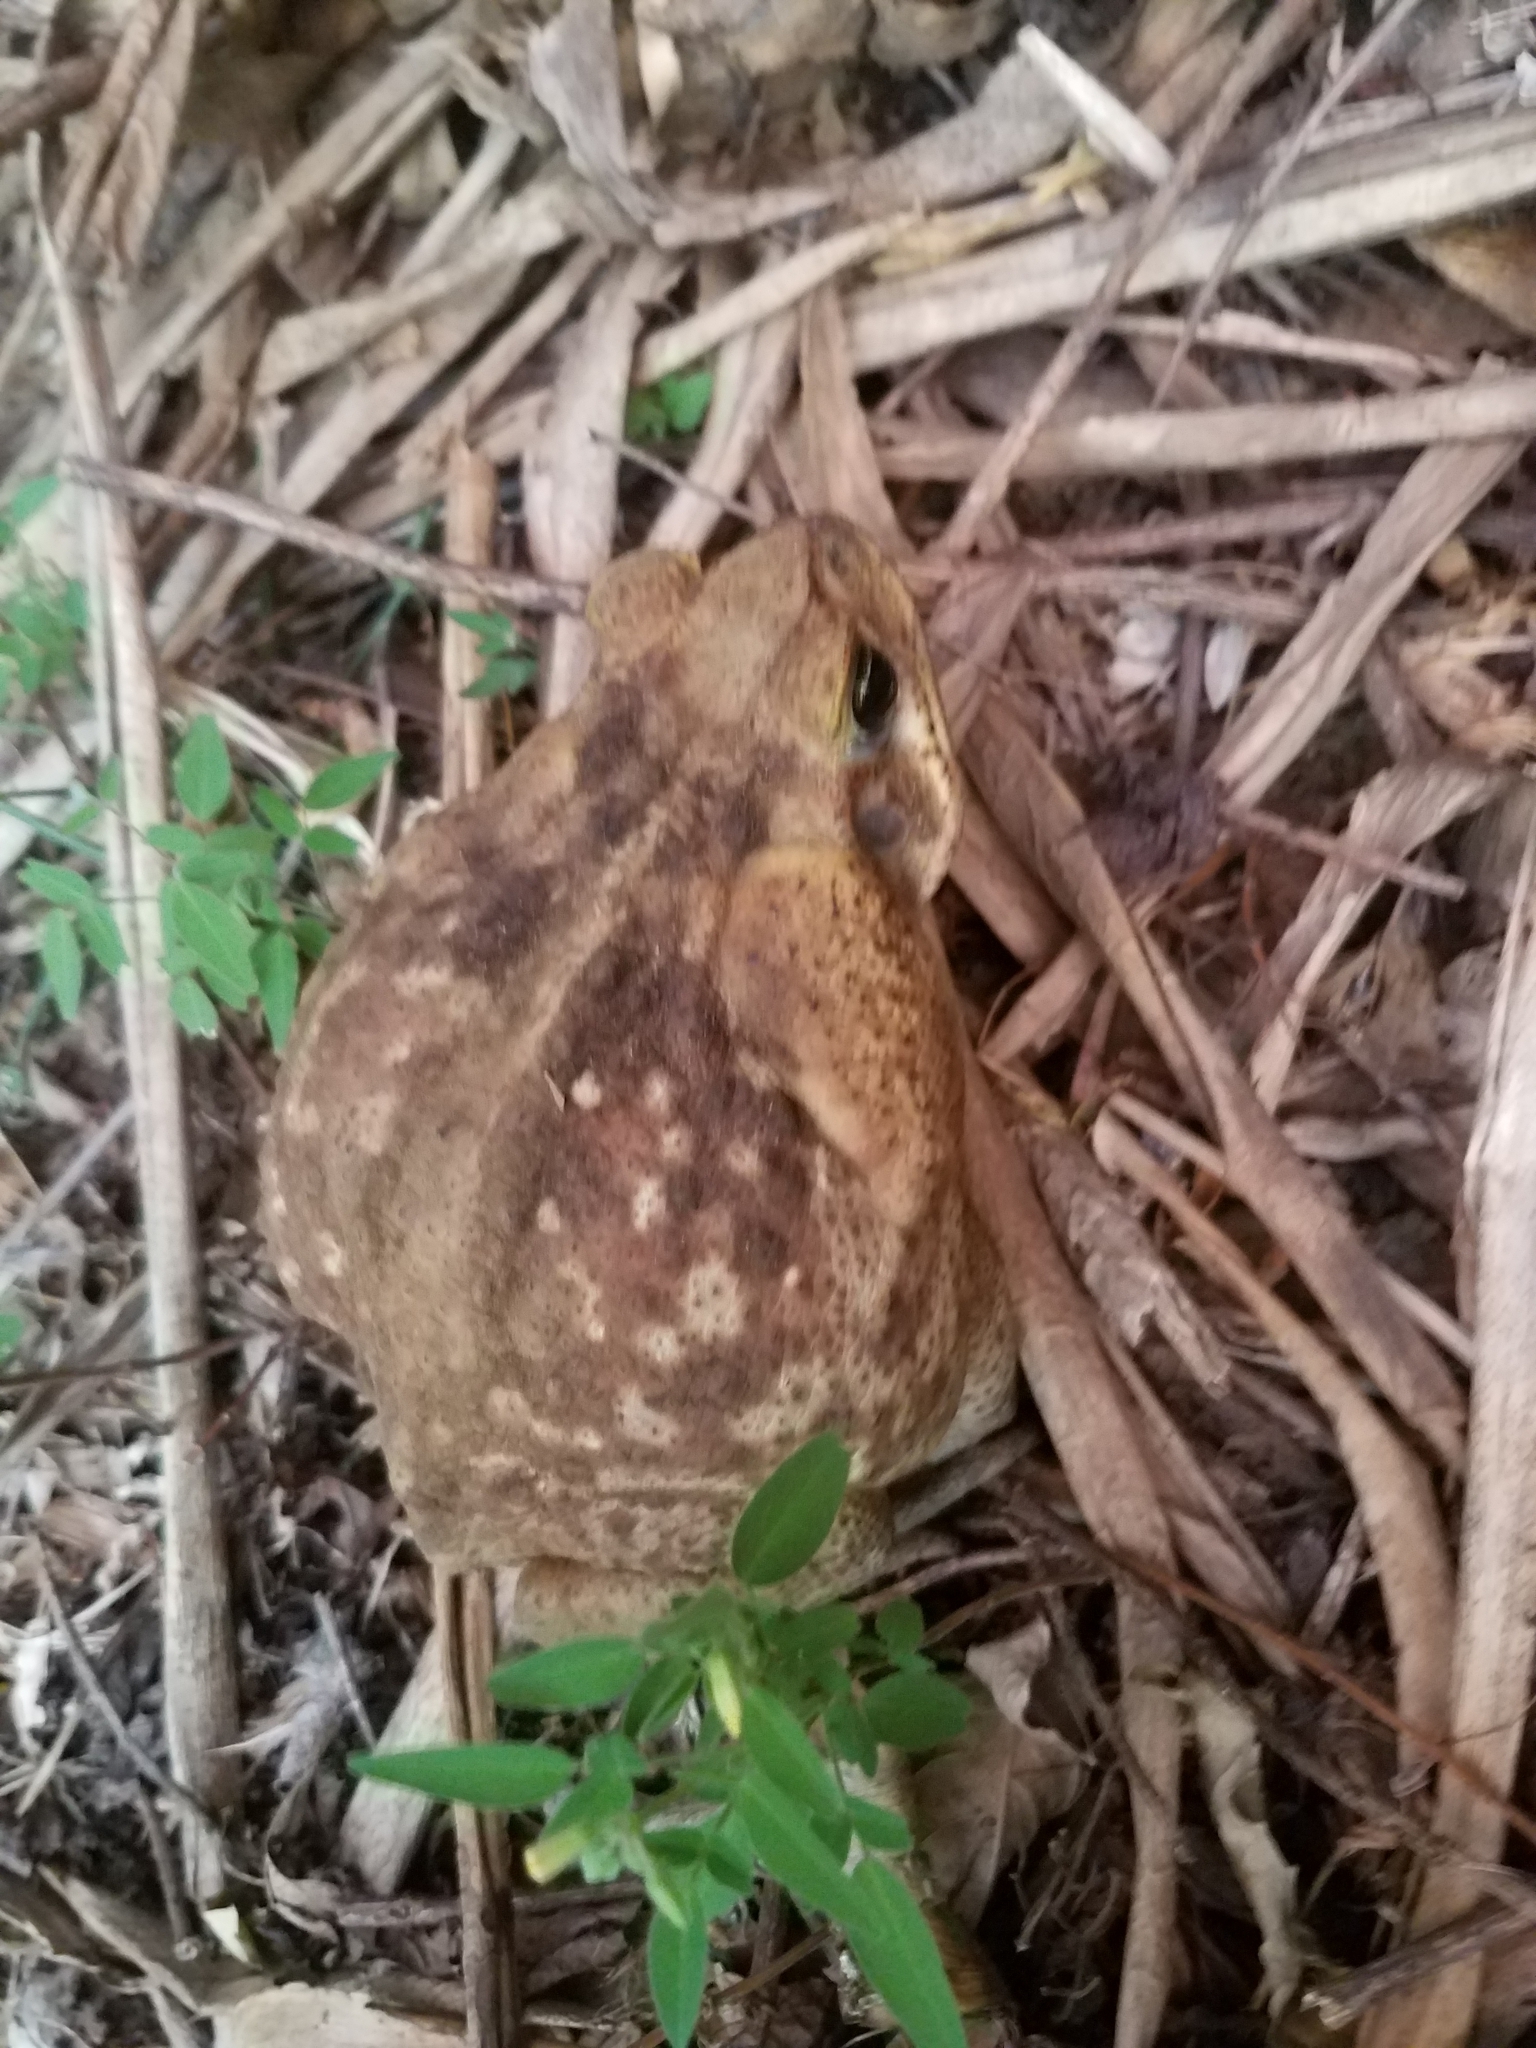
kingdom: Animalia
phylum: Chordata
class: Amphibia
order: Anura
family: Bufonidae
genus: Rhinella
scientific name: Rhinella horribilis
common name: Mesoamerican cane toad
